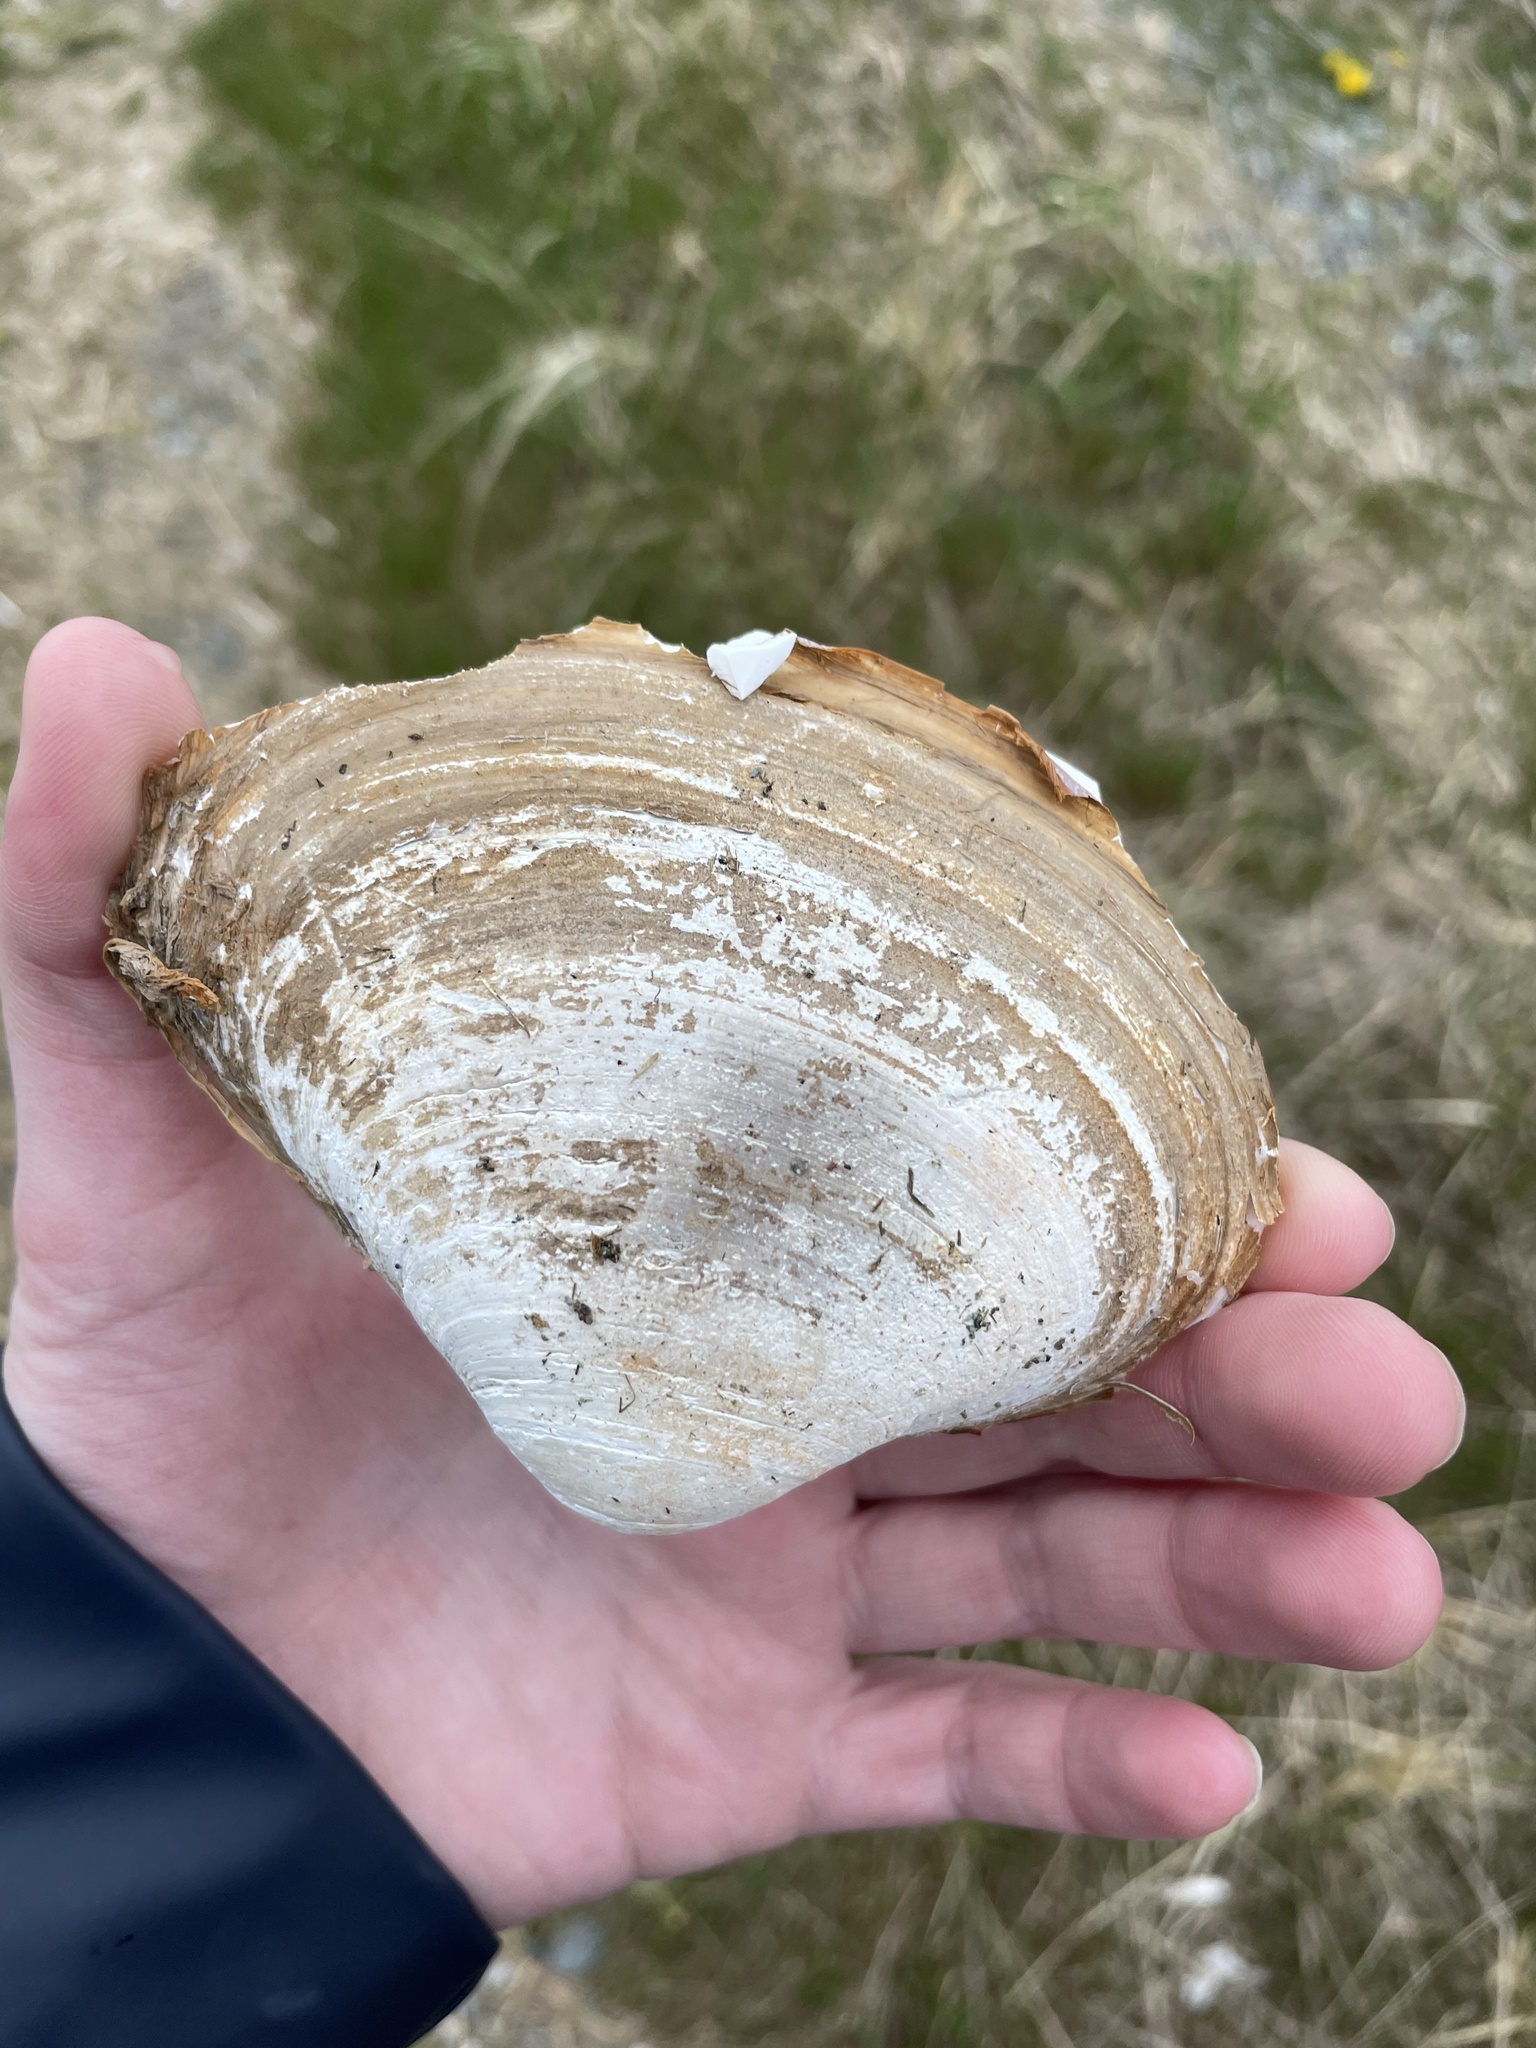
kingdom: Animalia
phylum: Mollusca
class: Bivalvia
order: Venerida
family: Mactridae
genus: Spisula
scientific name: Spisula solidissima
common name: Atlantic surf clam
